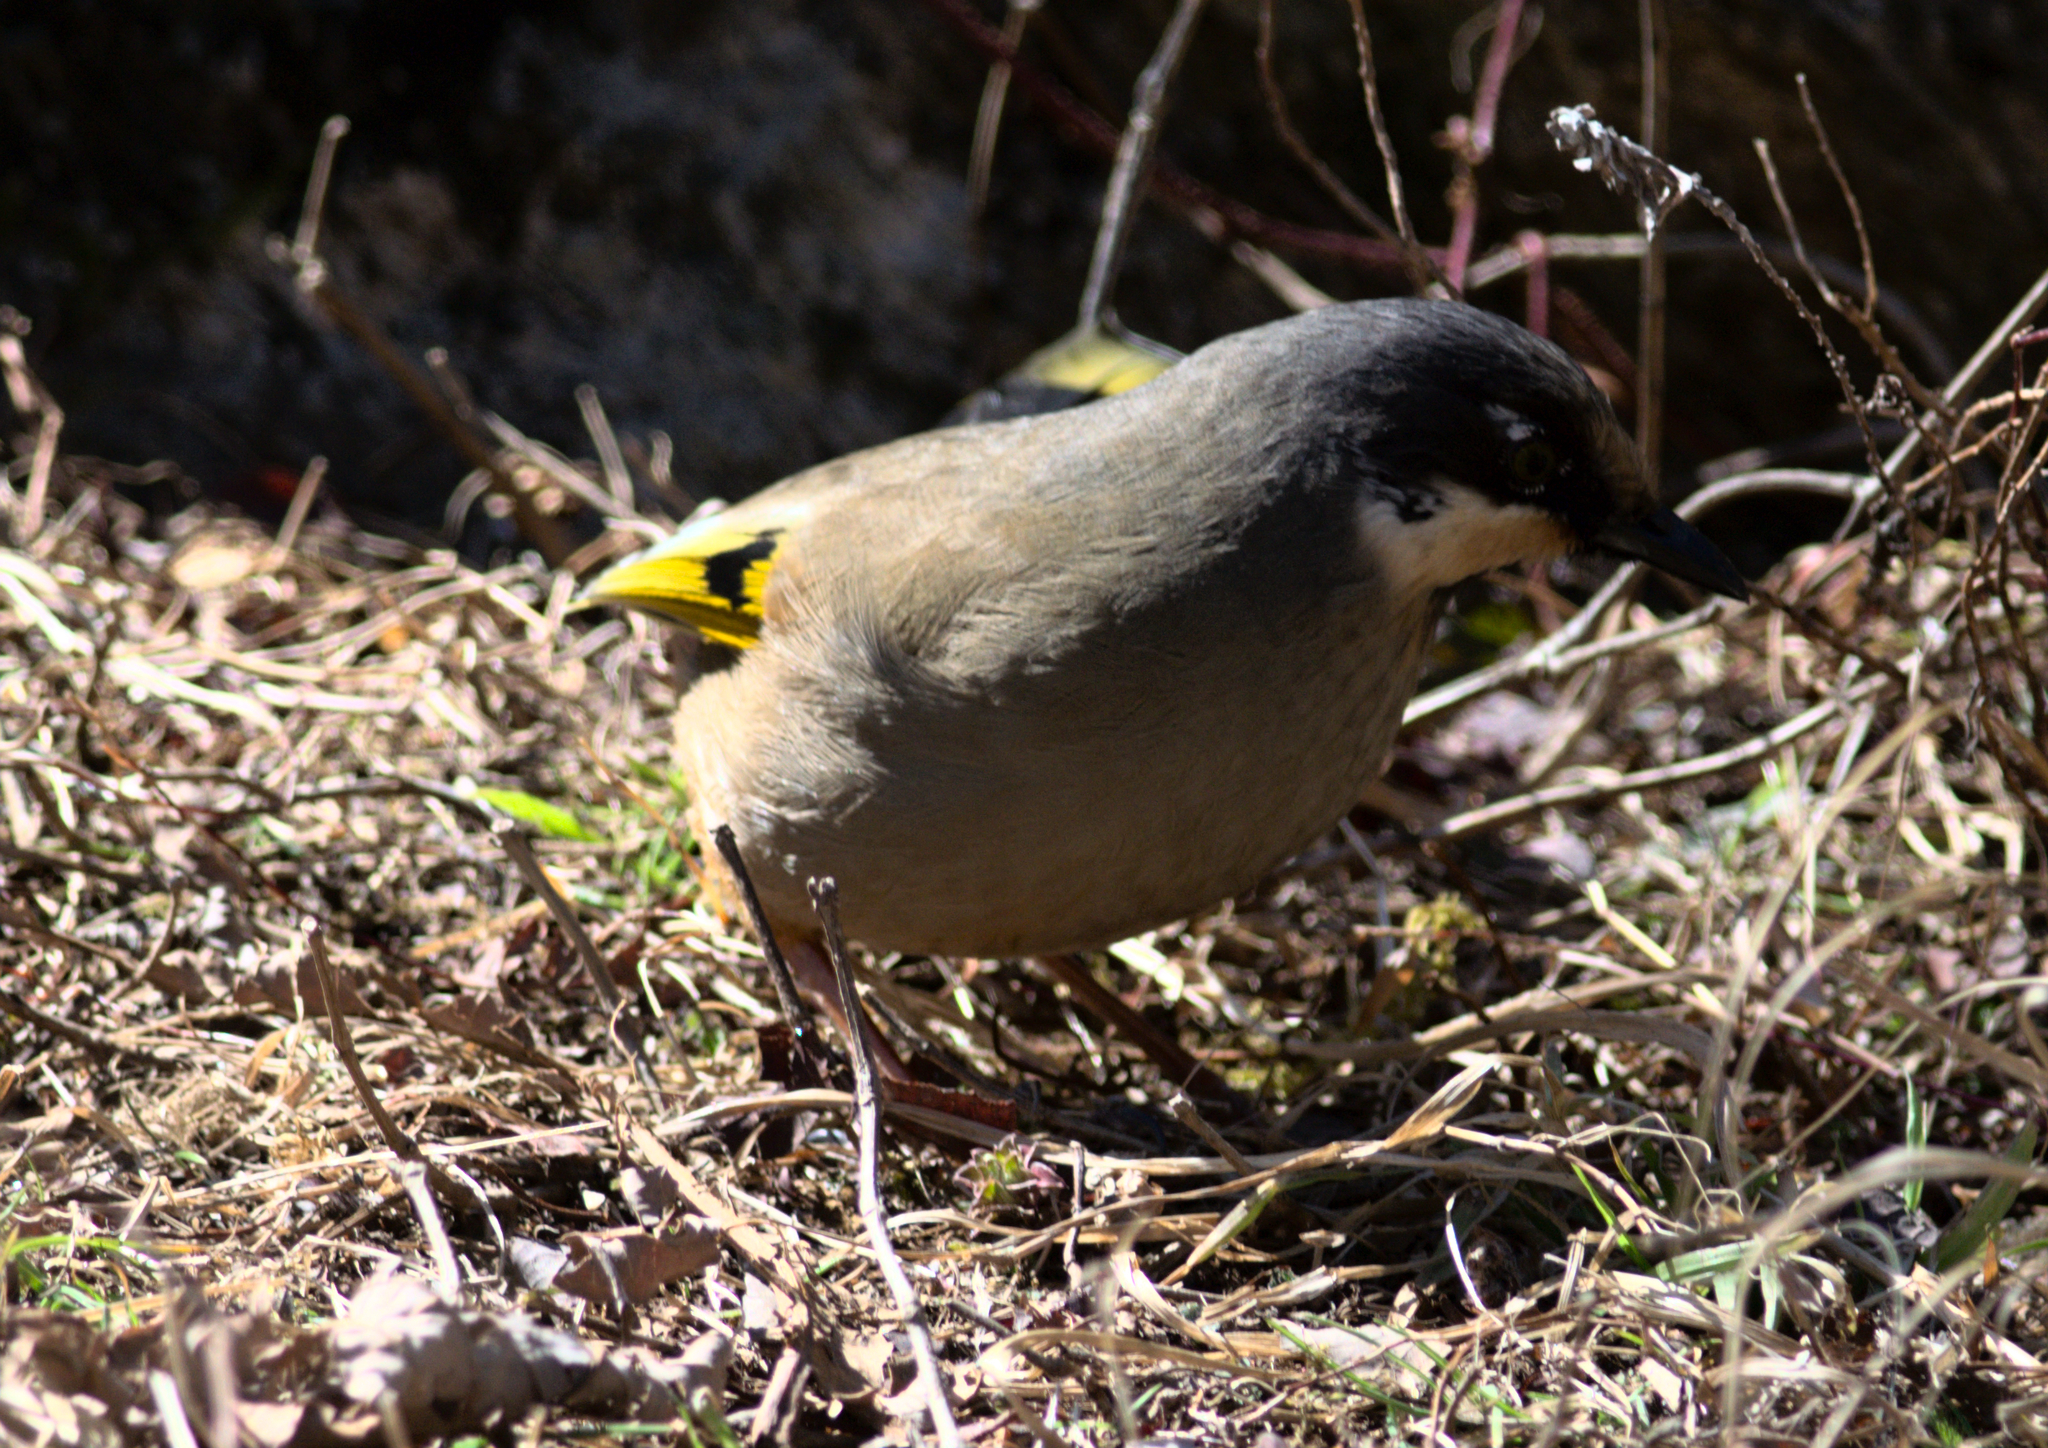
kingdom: Animalia
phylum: Chordata
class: Aves
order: Passeriformes
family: Leiothrichidae
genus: Trochalopteron
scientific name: Trochalopteron variegatum
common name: Variegated laughingthrush
